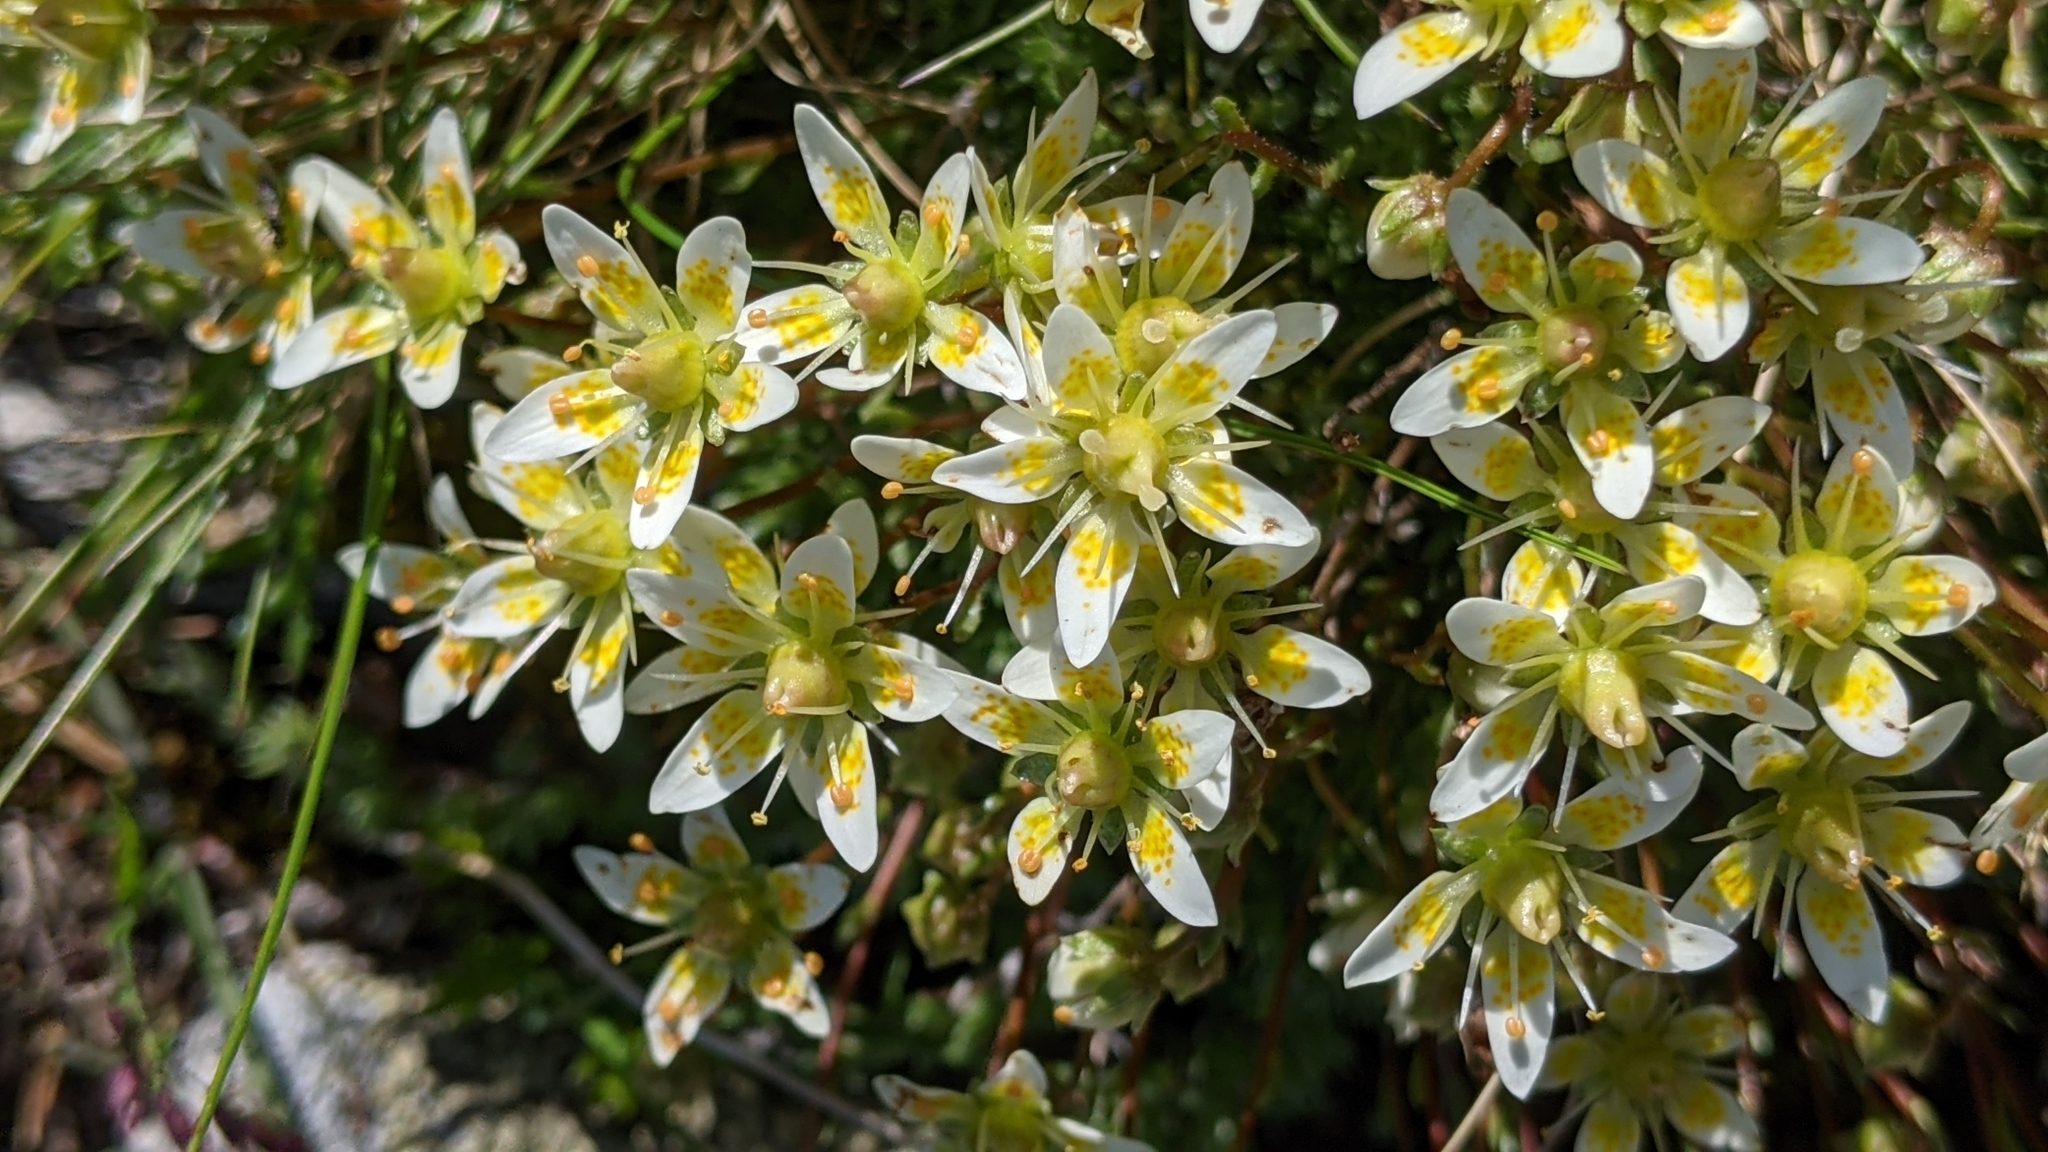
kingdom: Plantae
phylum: Tracheophyta
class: Magnoliopsida
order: Saxifragales
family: Saxifragaceae
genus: Saxifraga
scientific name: Saxifraga bryoides
